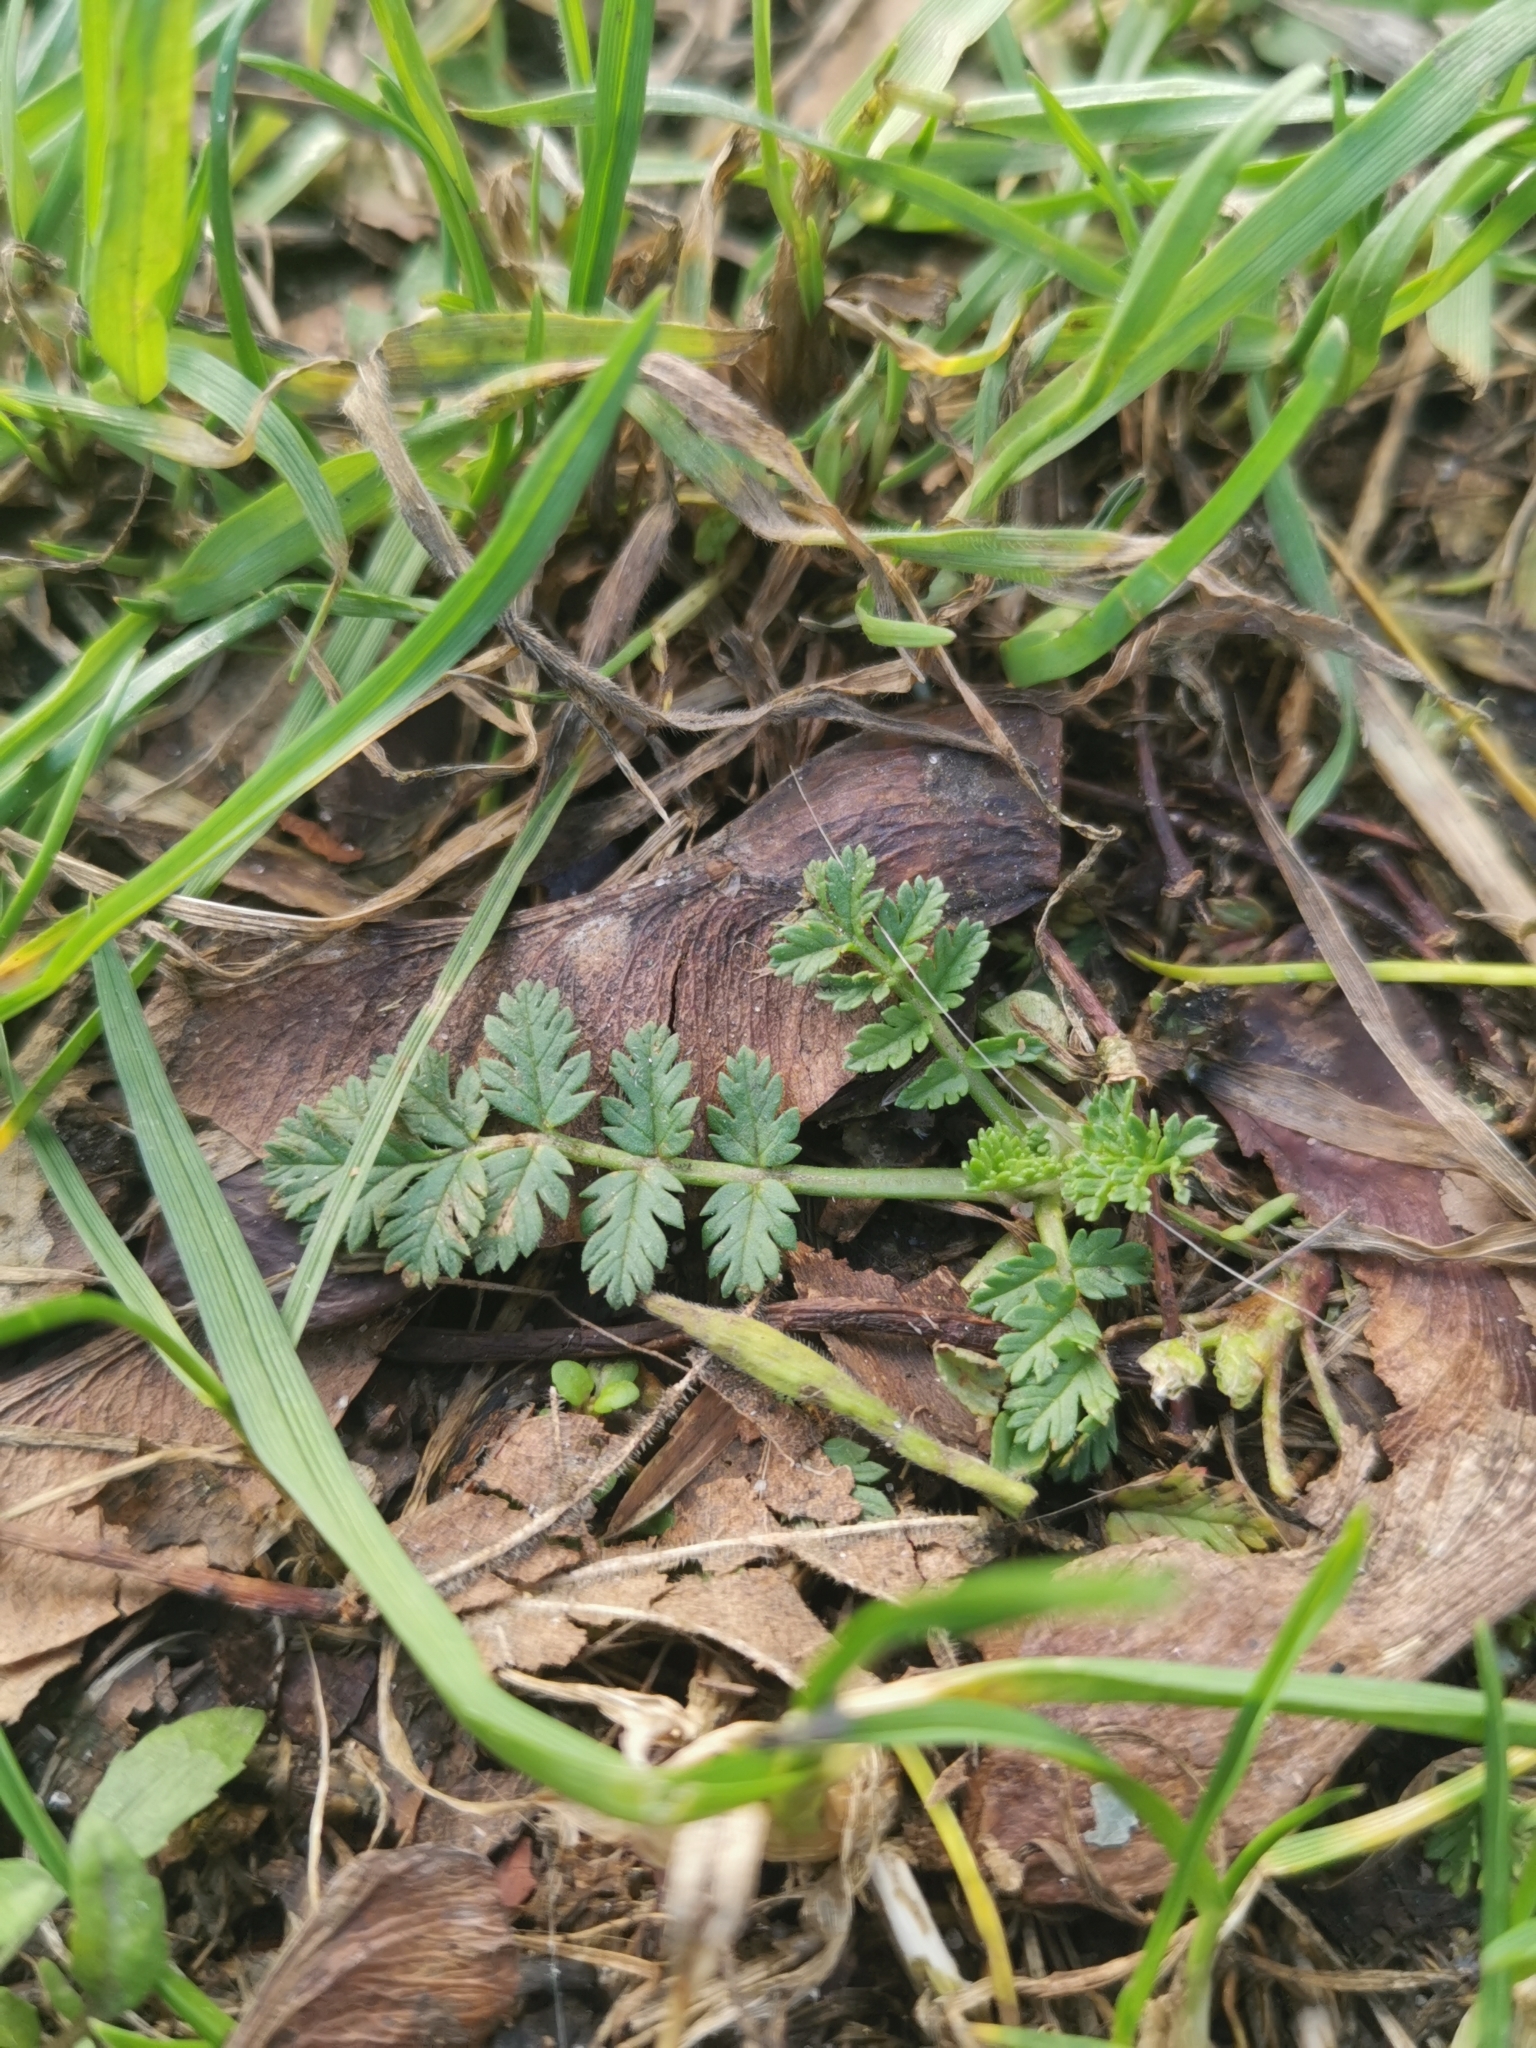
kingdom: Plantae
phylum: Tracheophyta
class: Magnoliopsida
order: Geraniales
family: Geraniaceae
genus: Erodium
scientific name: Erodium cicutarium
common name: Common stork's-bill
